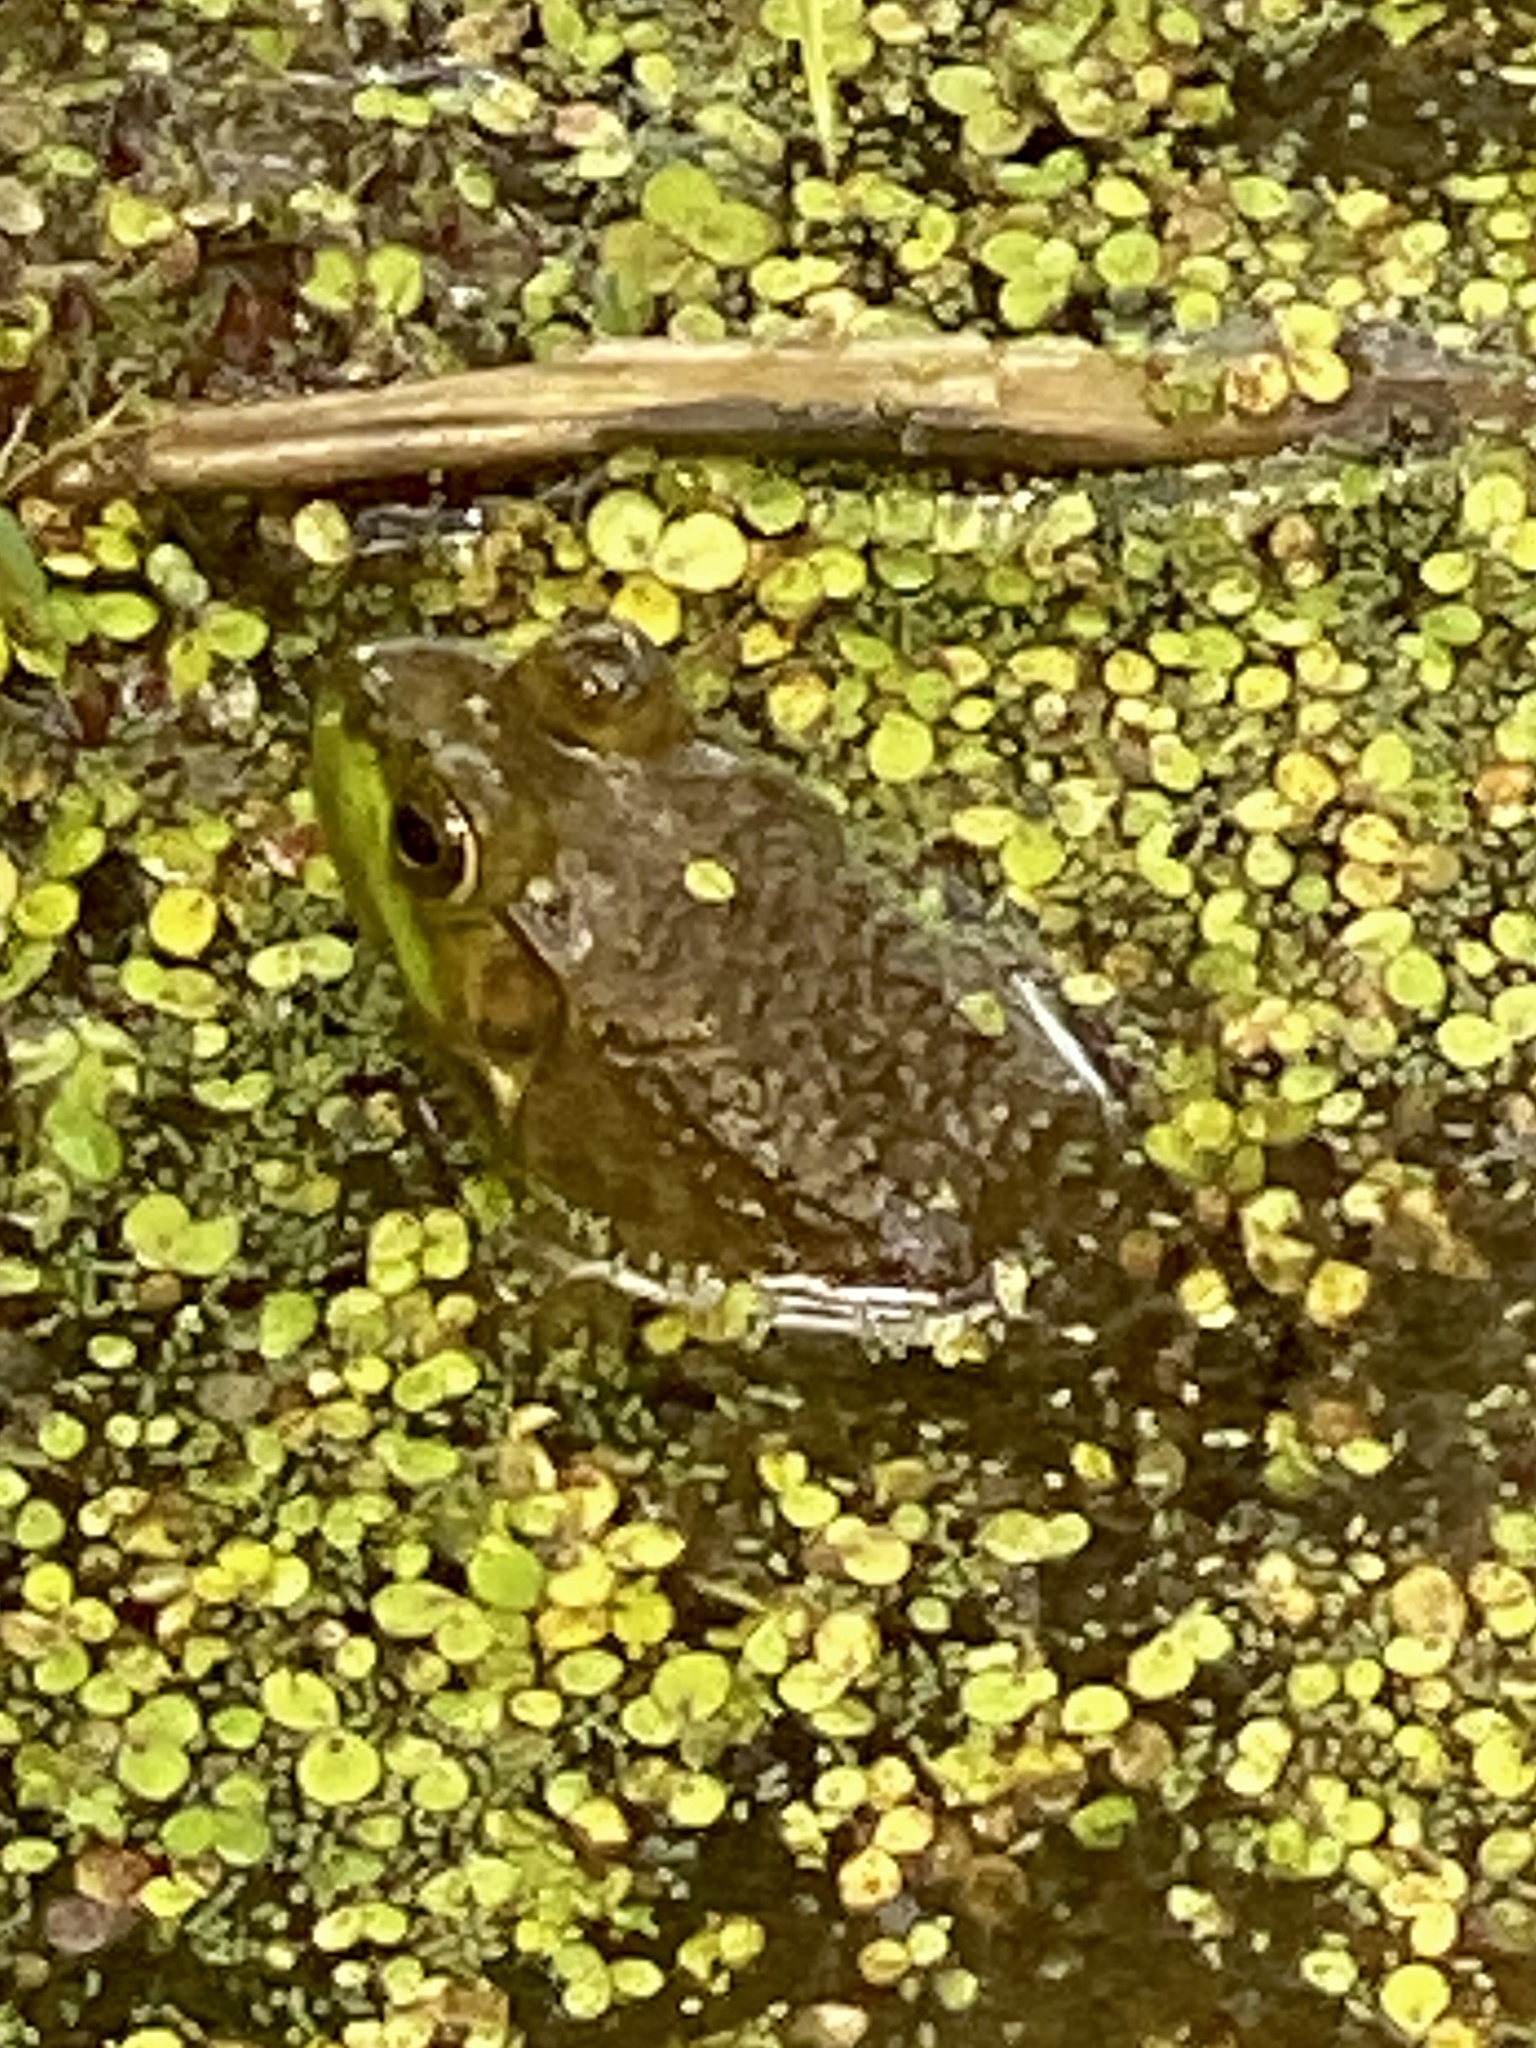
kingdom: Animalia
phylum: Chordata
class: Amphibia
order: Anura
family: Ranidae
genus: Lithobates
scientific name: Lithobates clamitans
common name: Green frog
